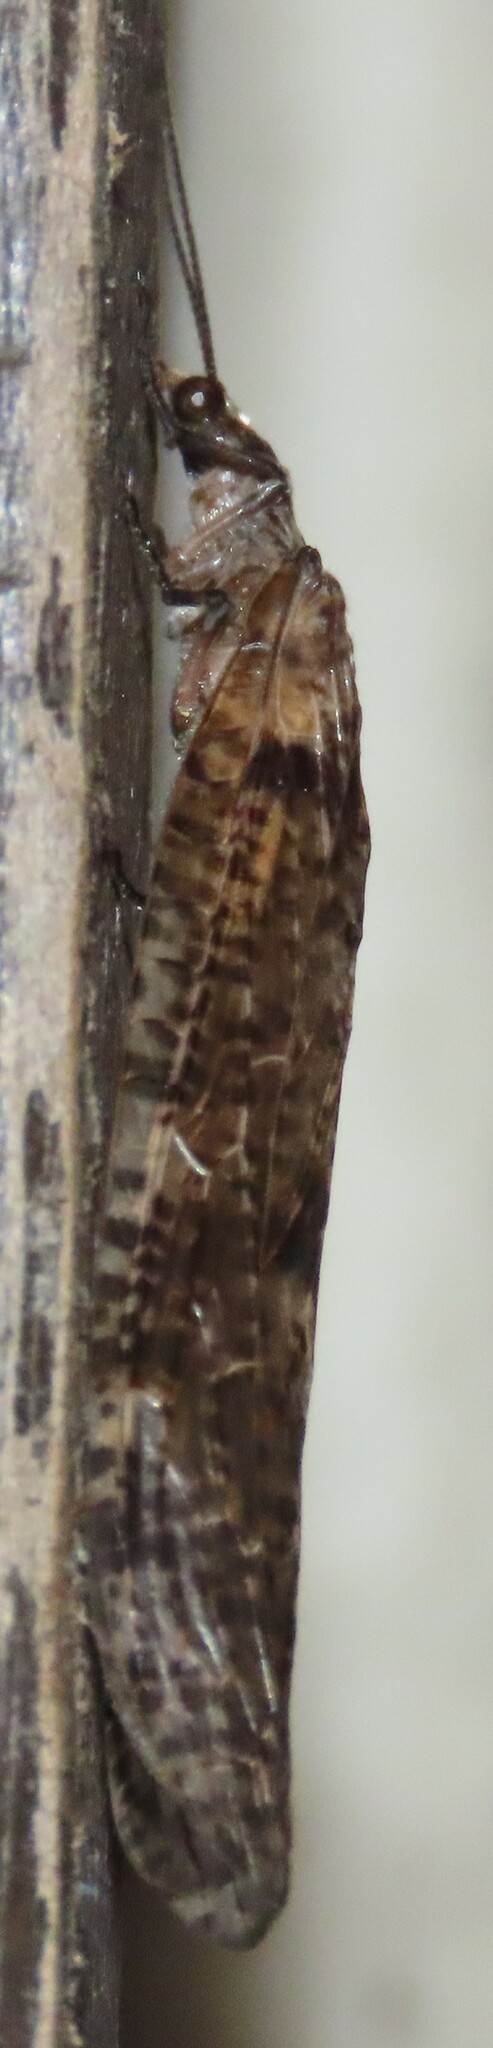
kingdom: Animalia
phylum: Arthropoda
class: Insecta
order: Megaloptera
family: Corydalidae
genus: Archichauliodes
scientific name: Archichauliodes diversus
